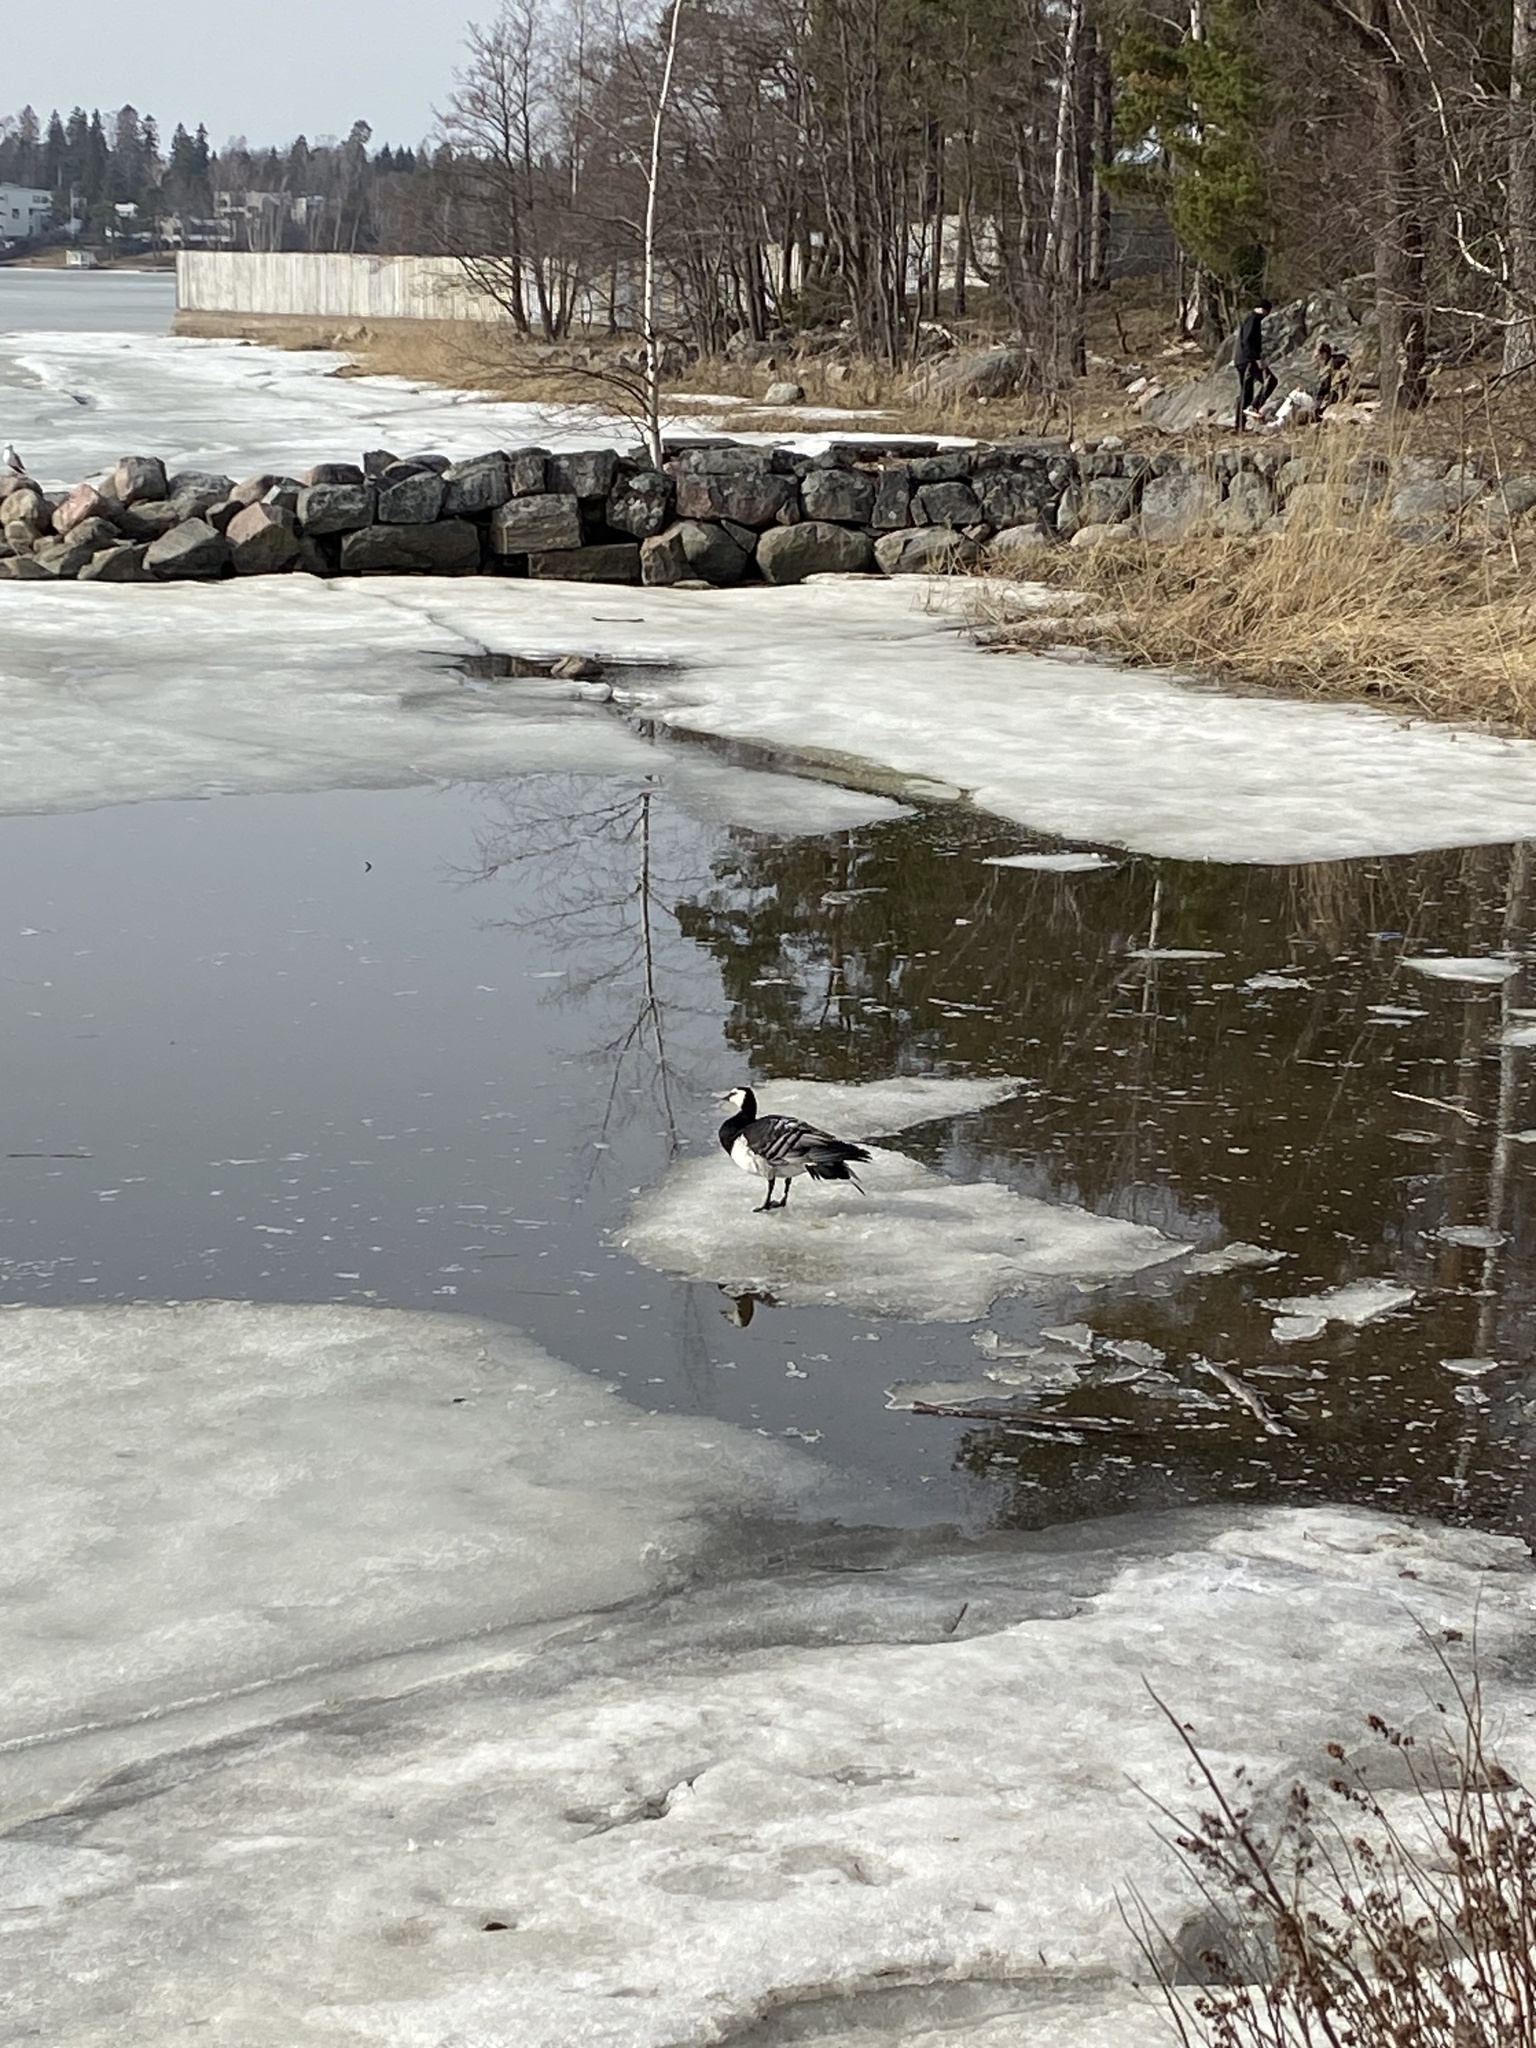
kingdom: Animalia
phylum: Chordata
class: Aves
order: Anseriformes
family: Anatidae
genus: Branta
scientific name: Branta leucopsis
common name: Barnacle goose
